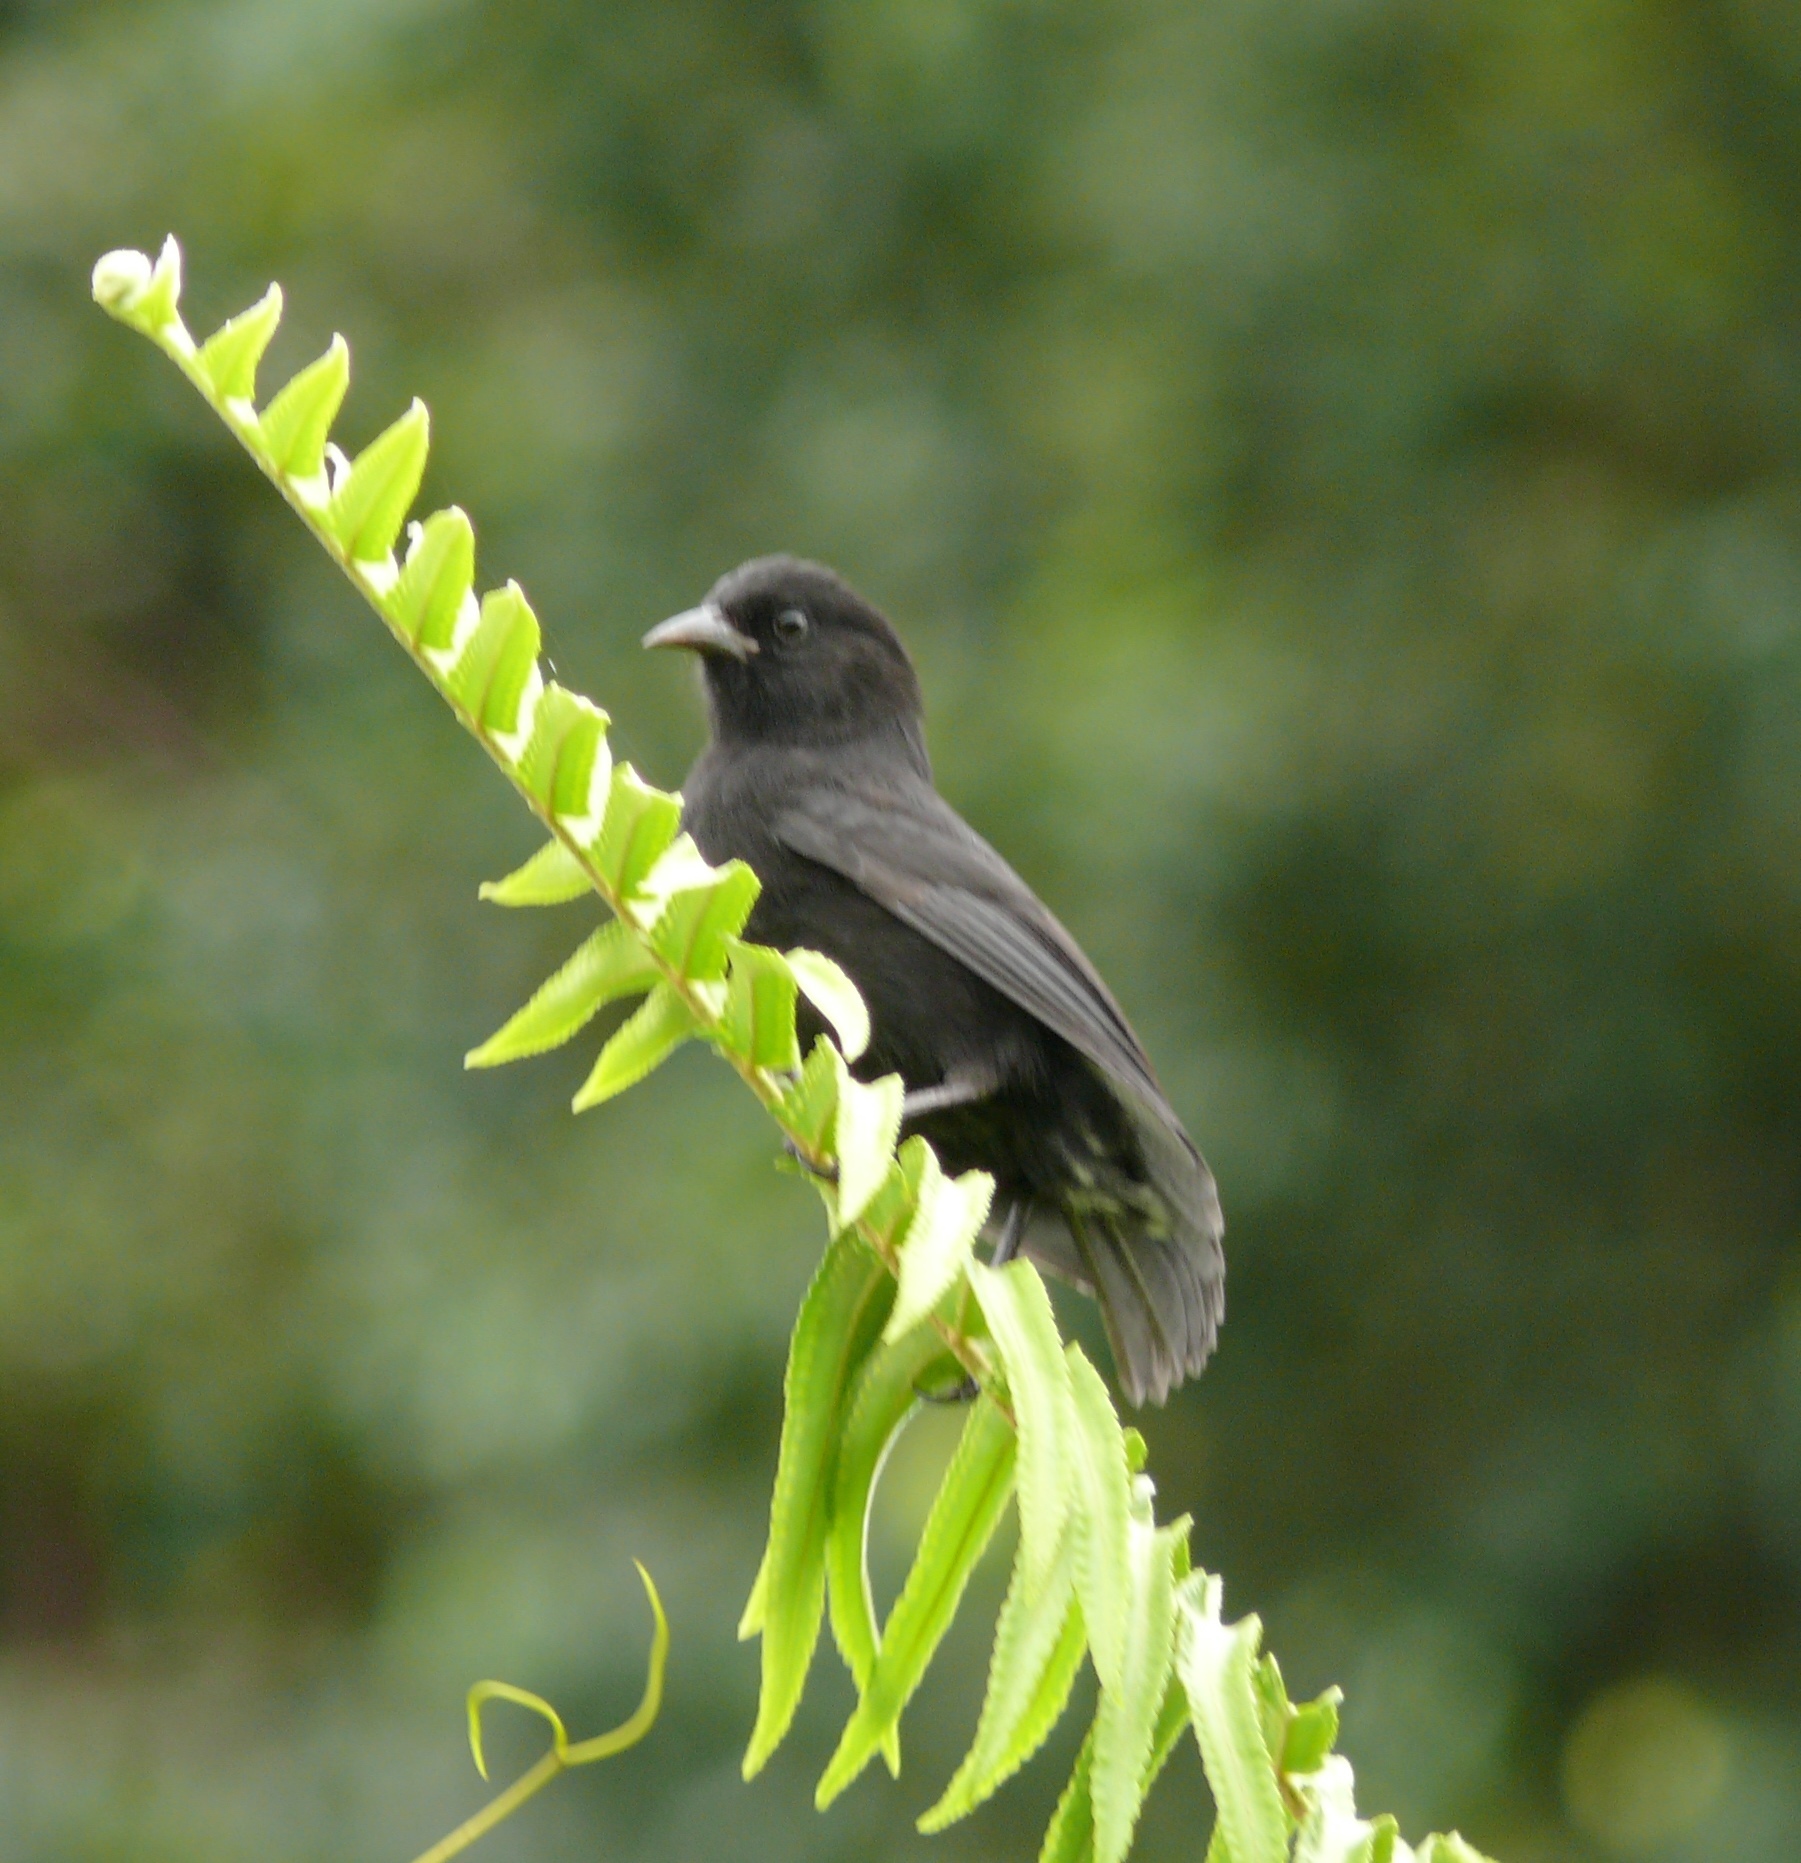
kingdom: Animalia
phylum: Chordata
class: Aves
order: Passeriformes
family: Thraupidae
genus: Pinaroloxias
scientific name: Pinaroloxias inornata
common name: Cocos finch
